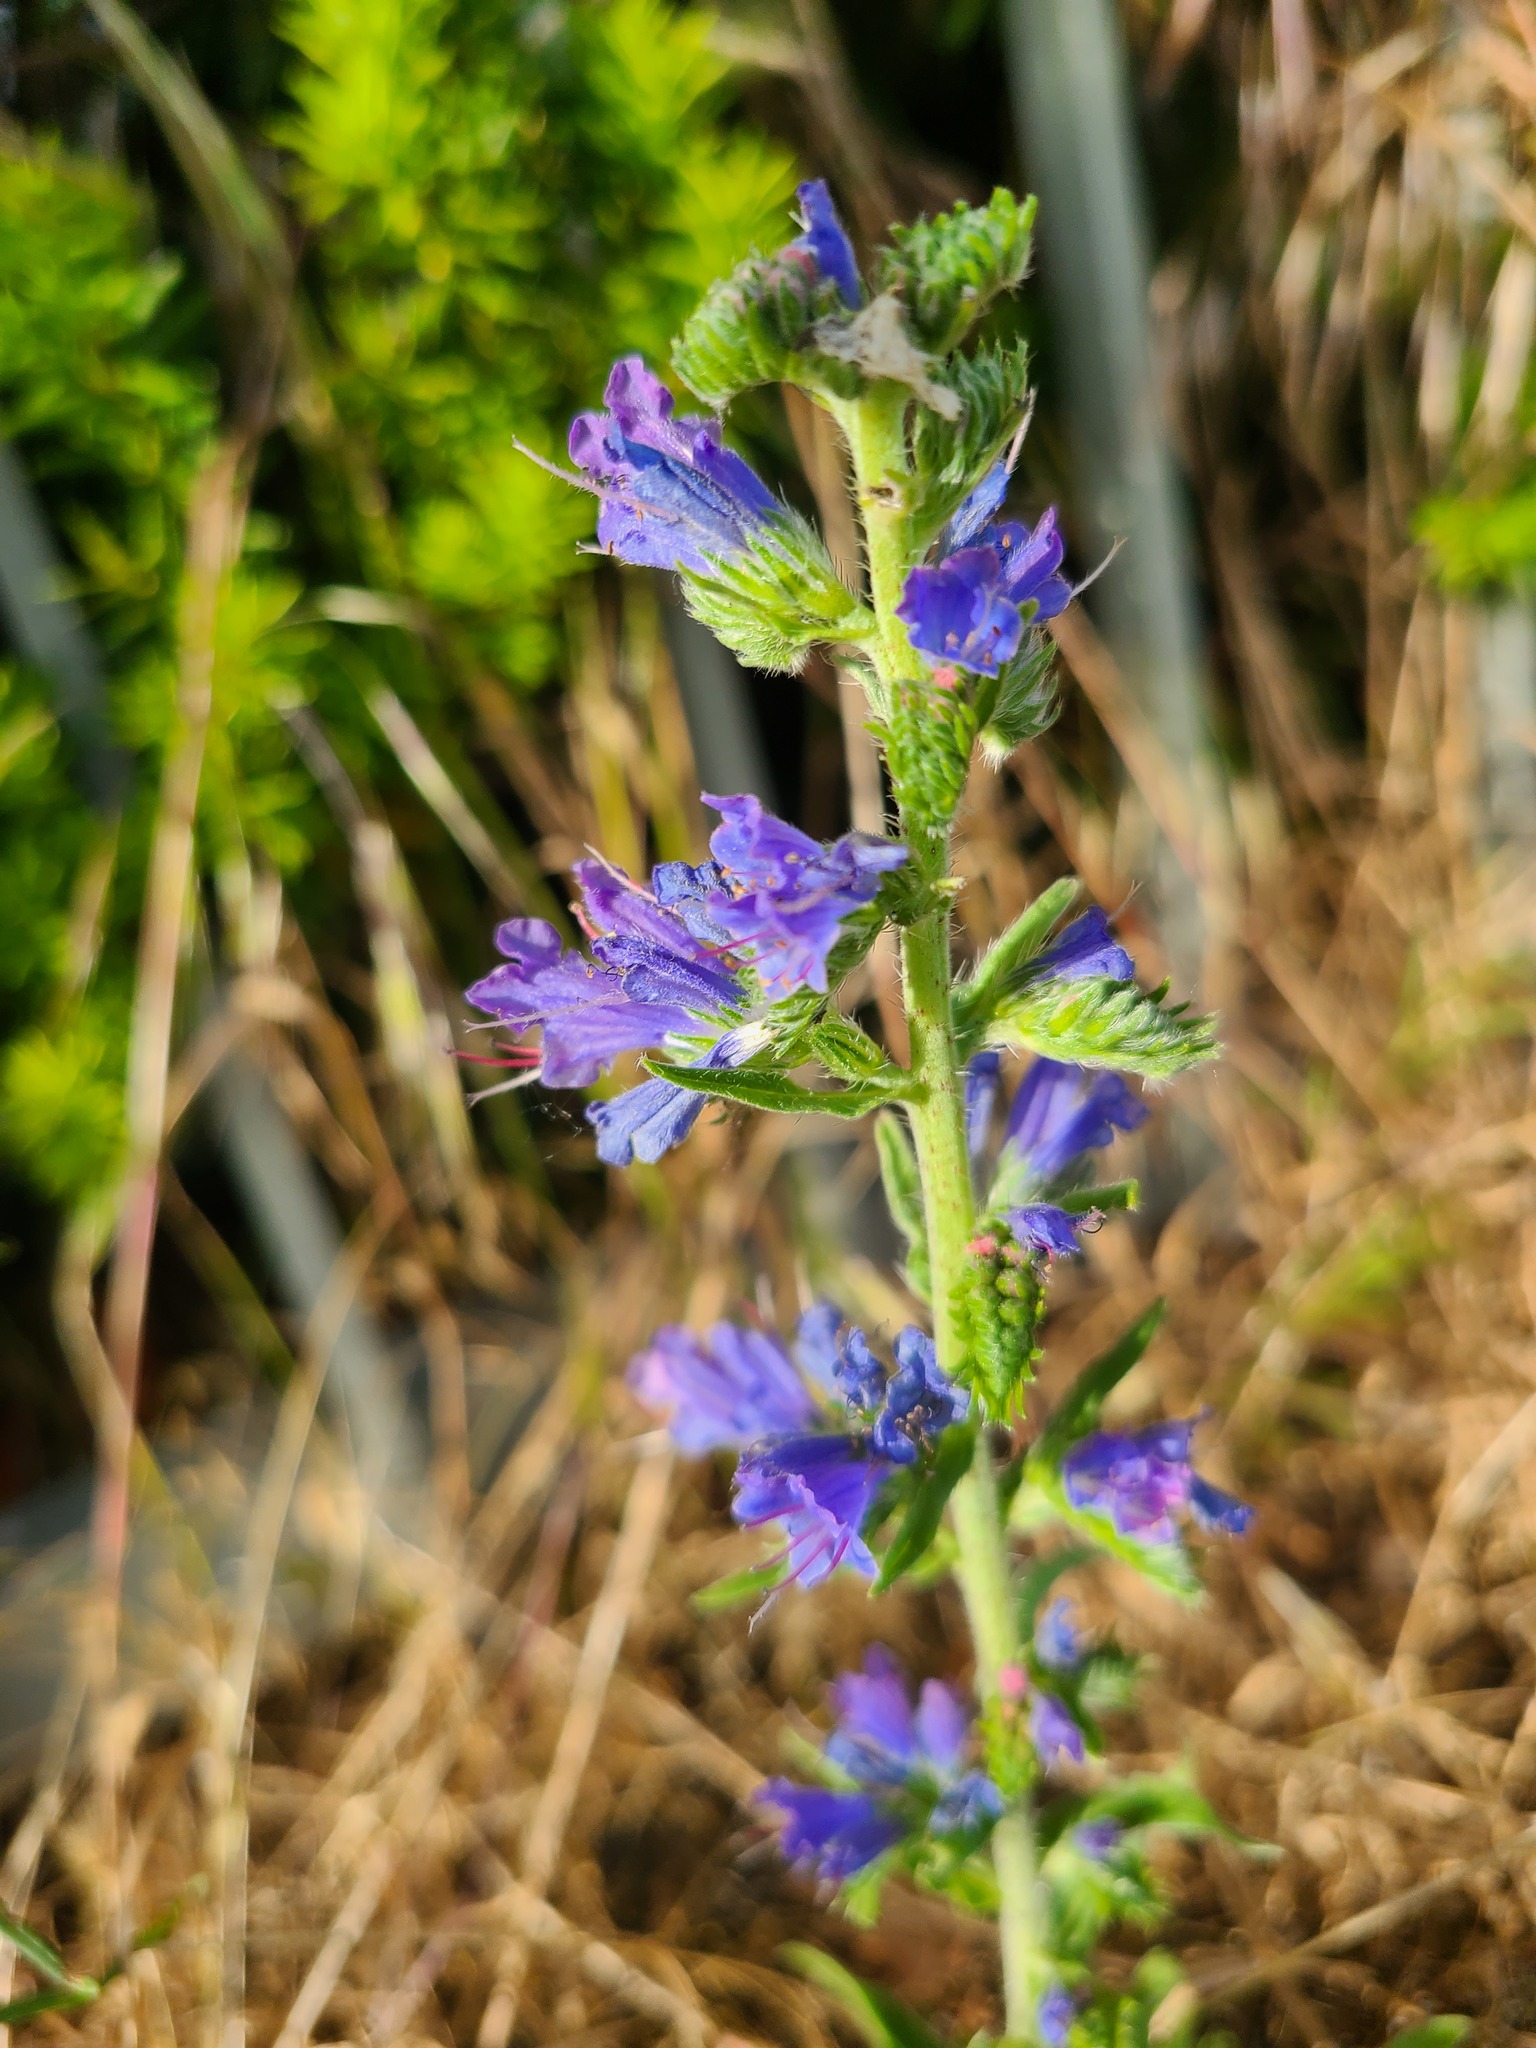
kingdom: Plantae
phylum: Tracheophyta
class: Magnoliopsida
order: Boraginales
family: Boraginaceae
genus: Echium
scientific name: Echium vulgare
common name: Common viper's bugloss
